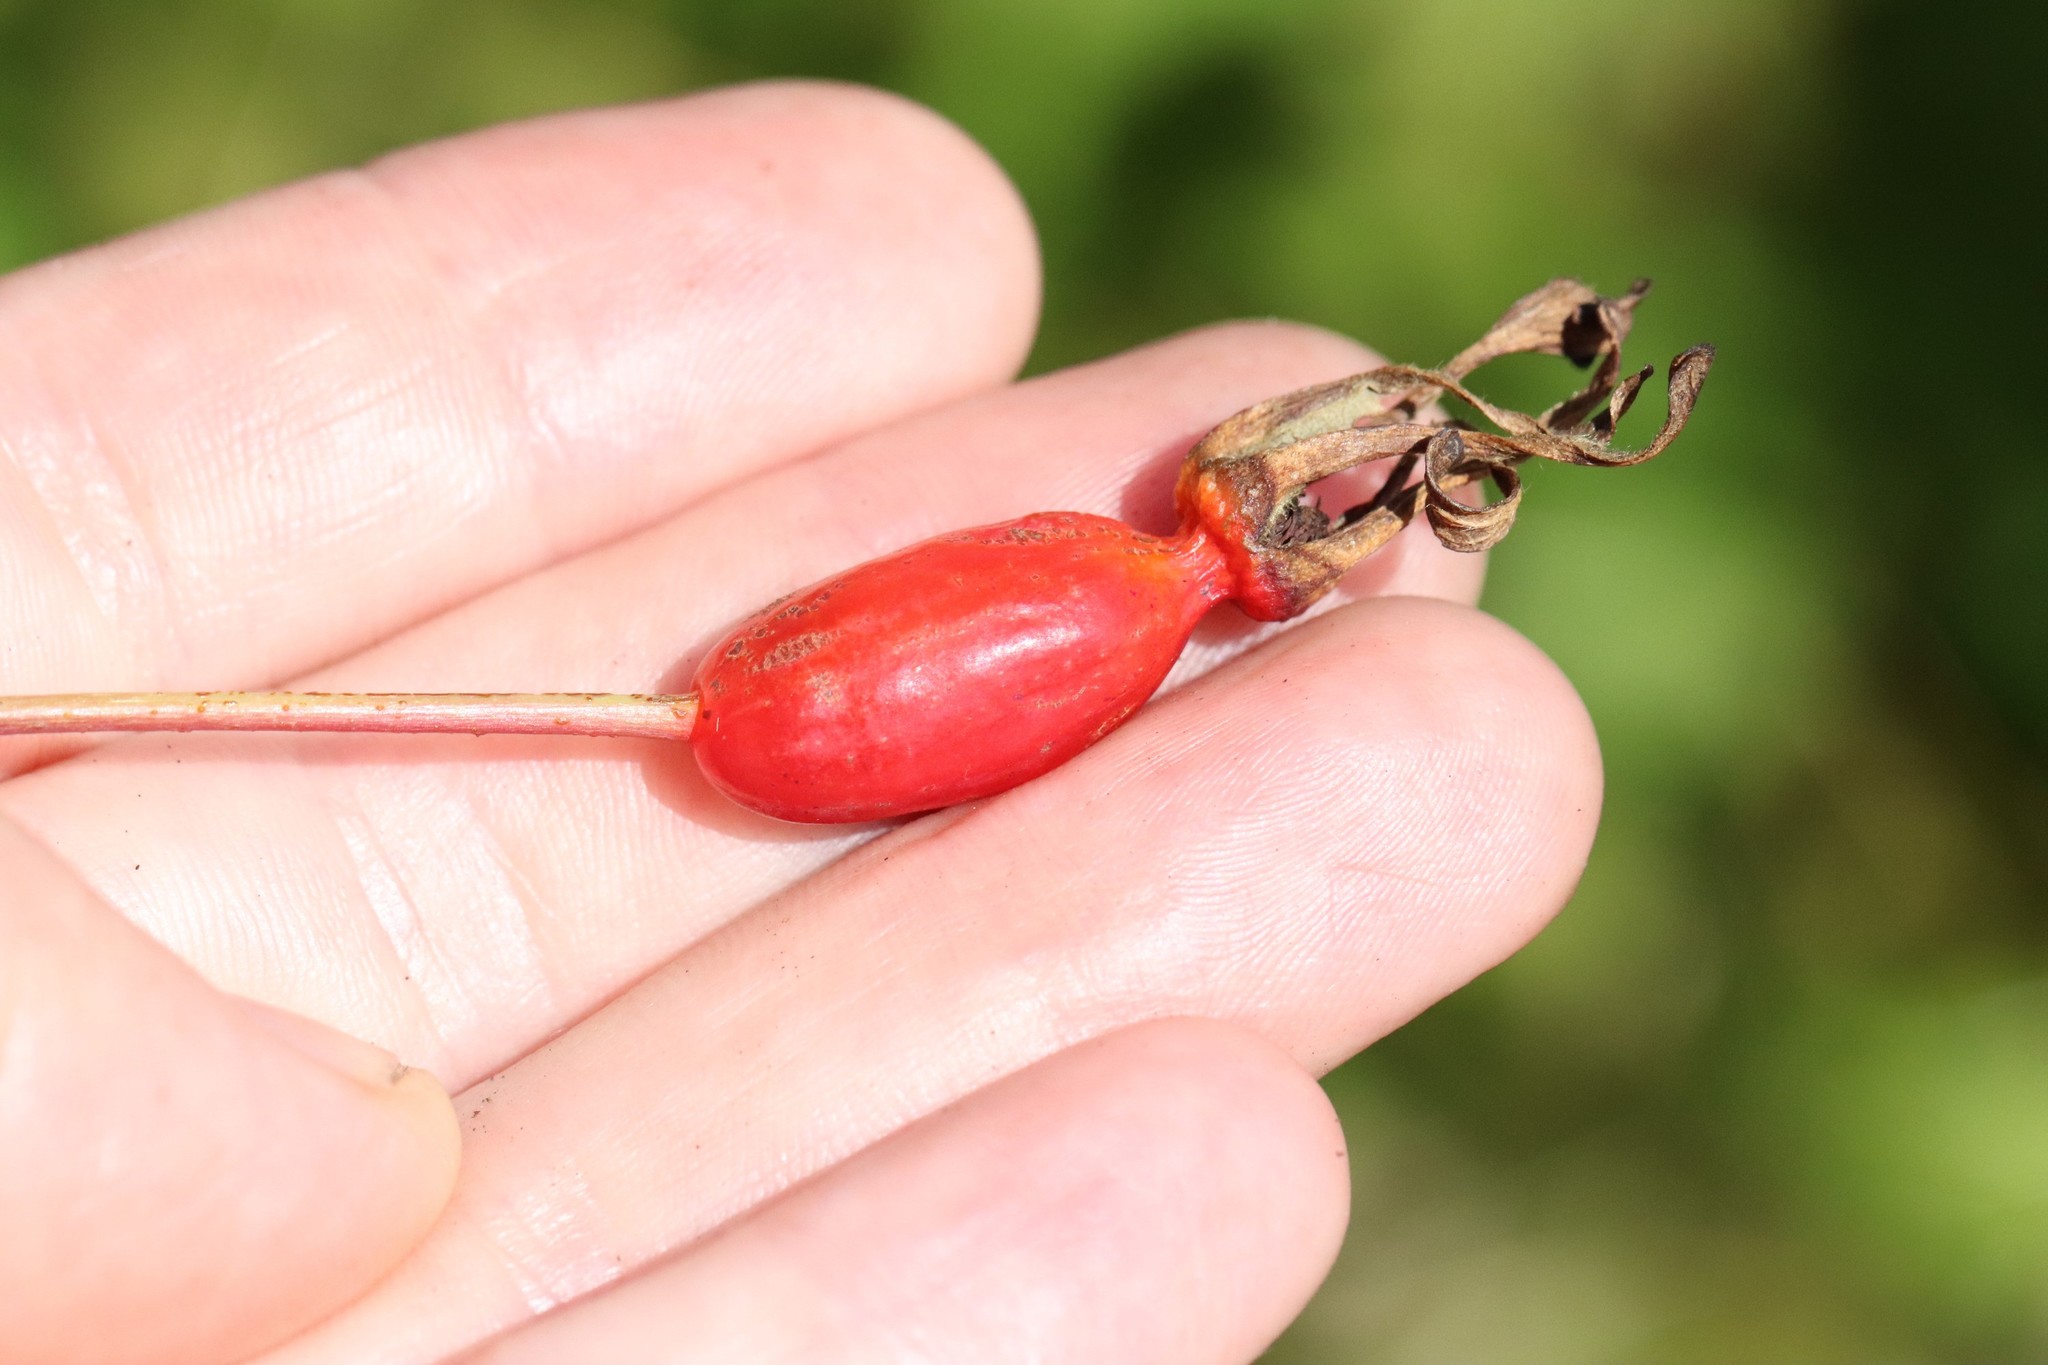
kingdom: Plantae
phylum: Tracheophyta
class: Magnoliopsida
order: Rosales
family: Rosaceae
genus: Rosa
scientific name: Rosa acicularis
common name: Prickly rose
